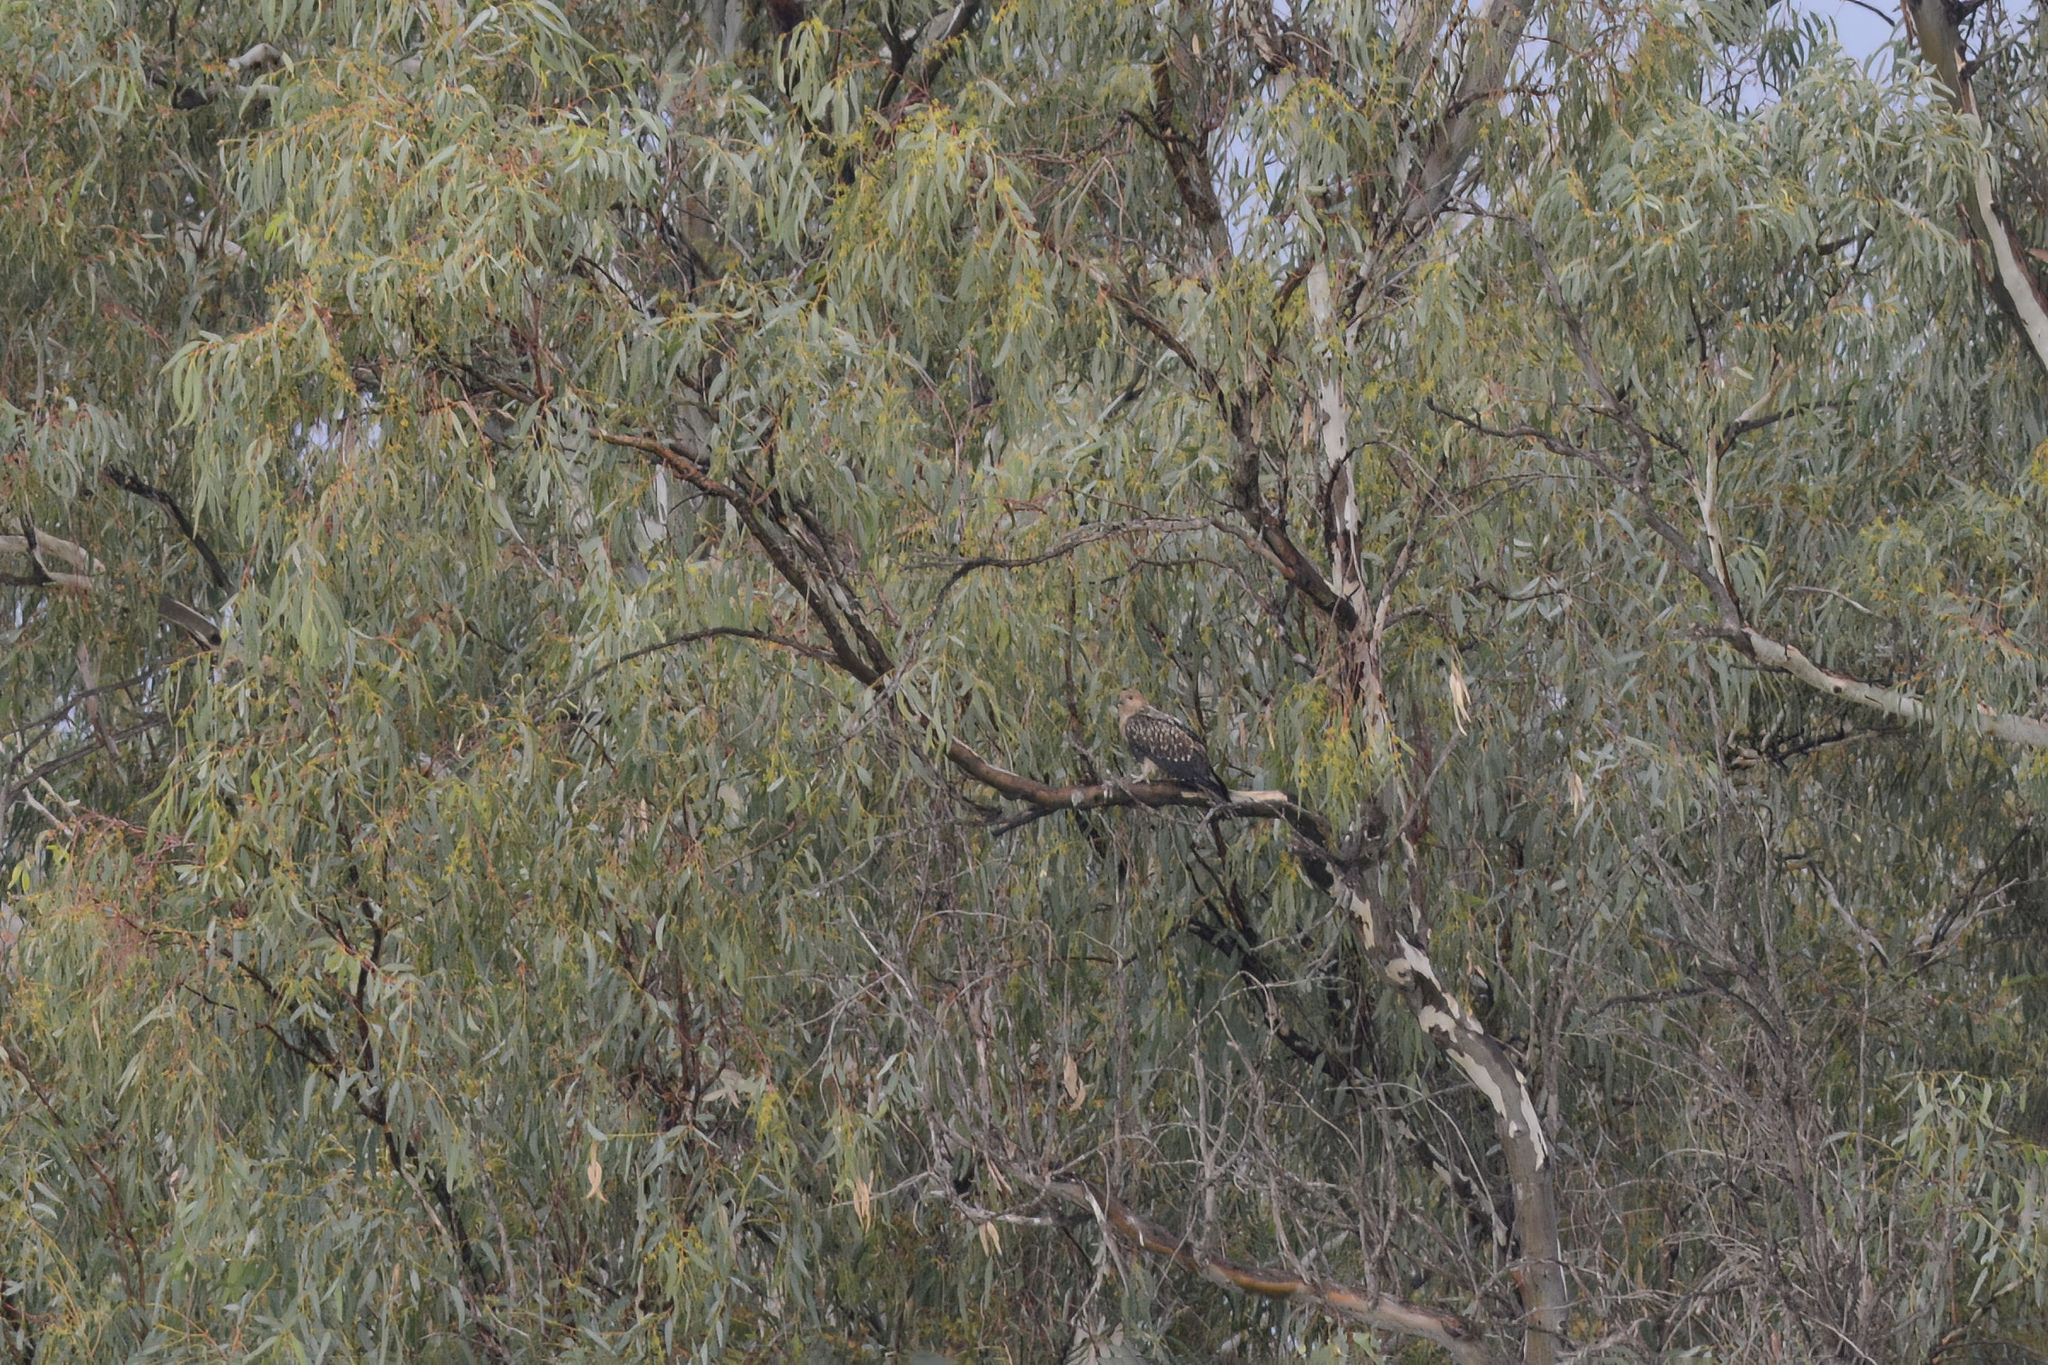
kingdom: Animalia
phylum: Chordata
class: Aves
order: Accipitriformes
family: Accipitridae
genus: Haliastur
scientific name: Haliastur sphenurus
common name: Whistling kite
